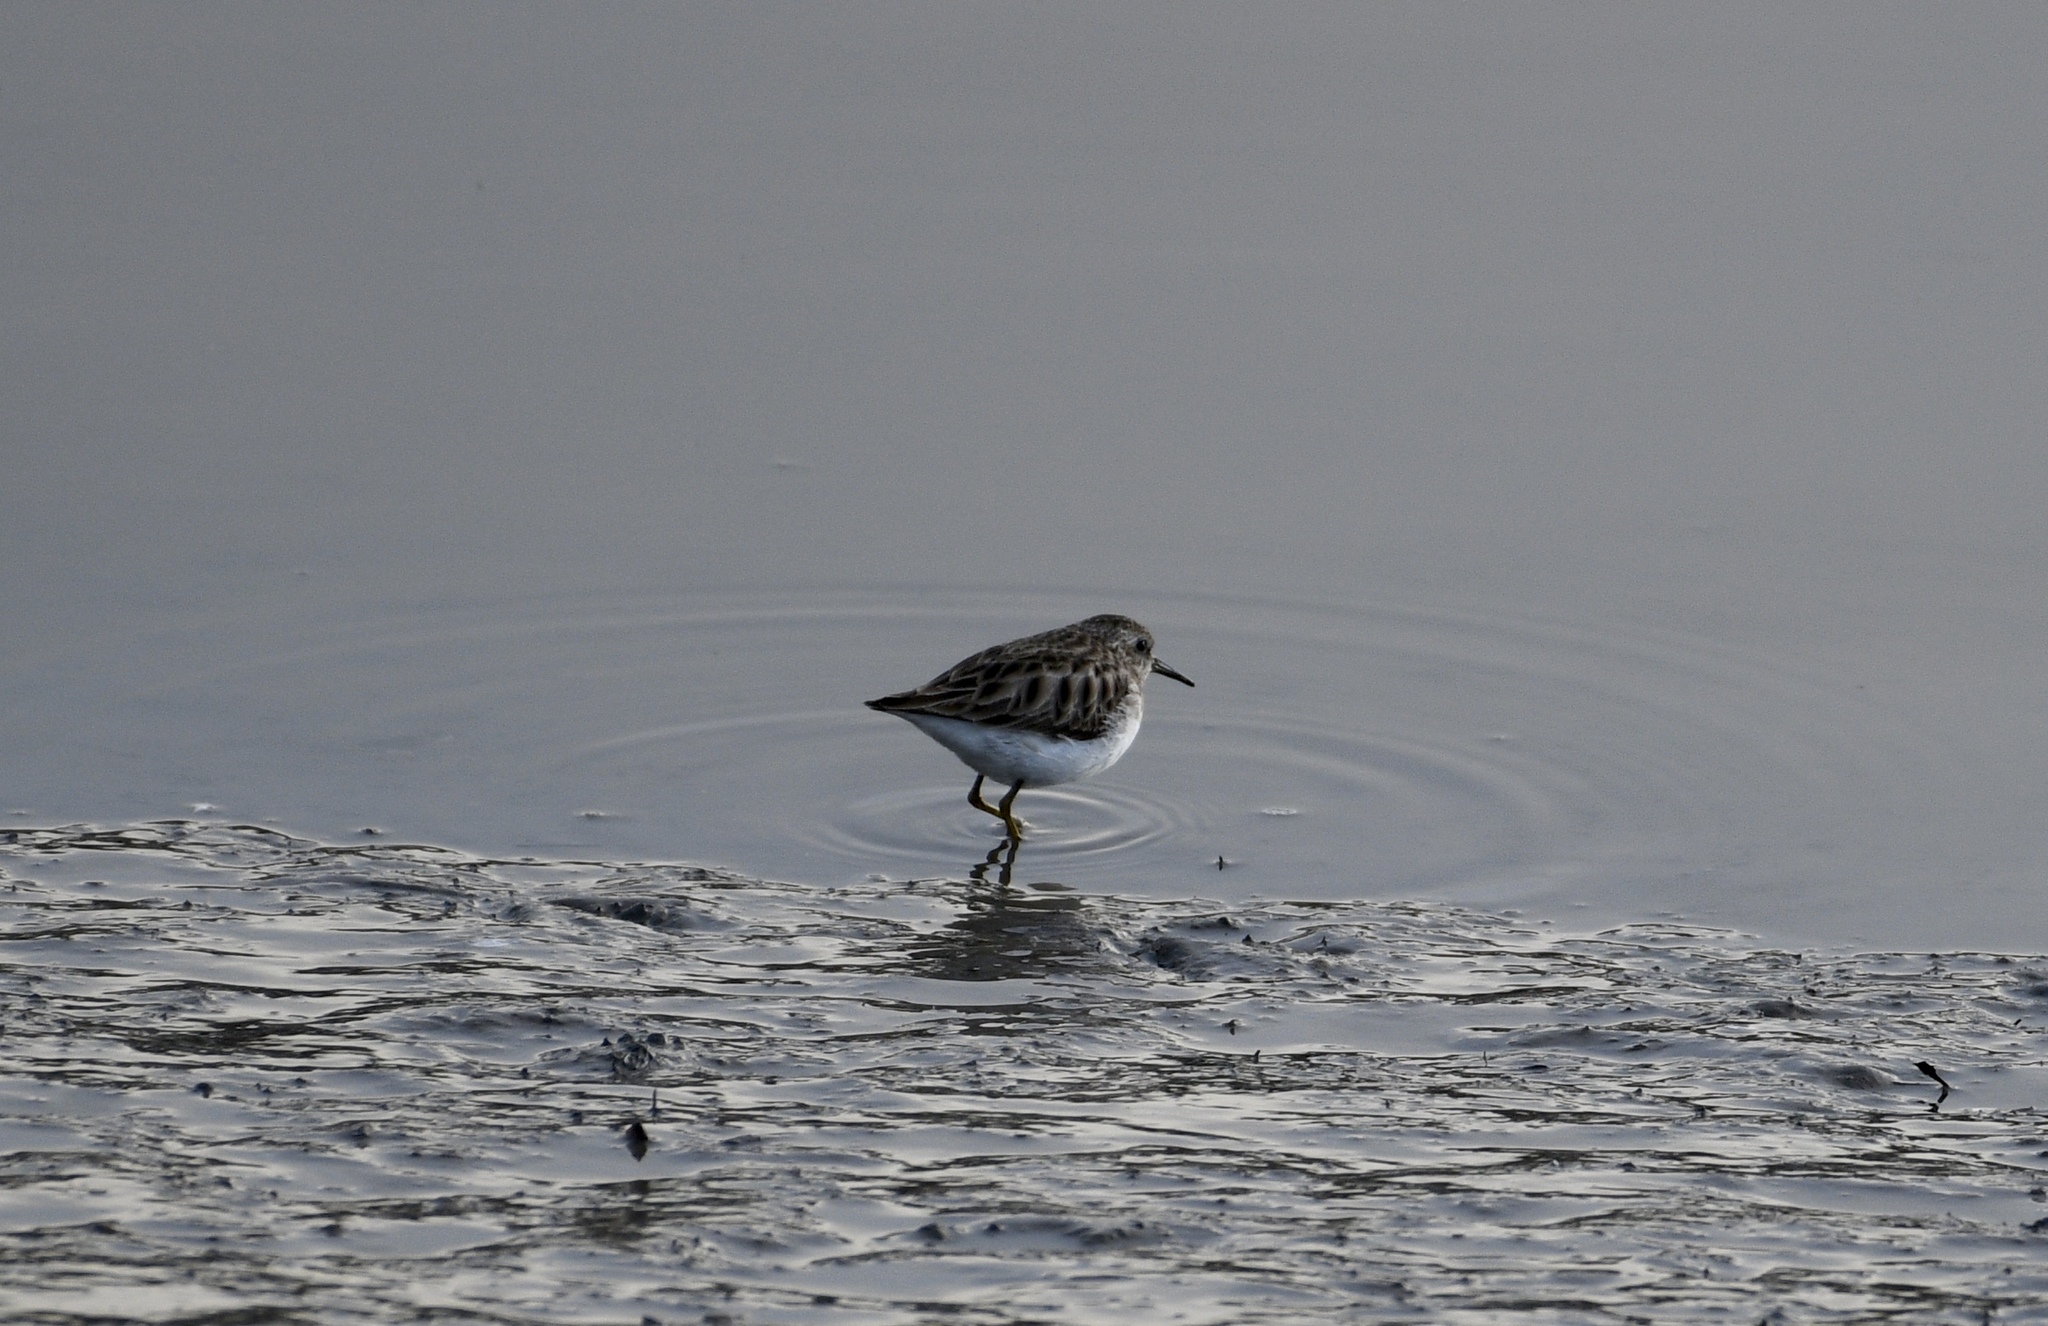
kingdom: Animalia
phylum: Chordata
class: Aves
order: Charadriiformes
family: Scolopacidae
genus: Calidris
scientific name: Calidris minutilla
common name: Least sandpiper
